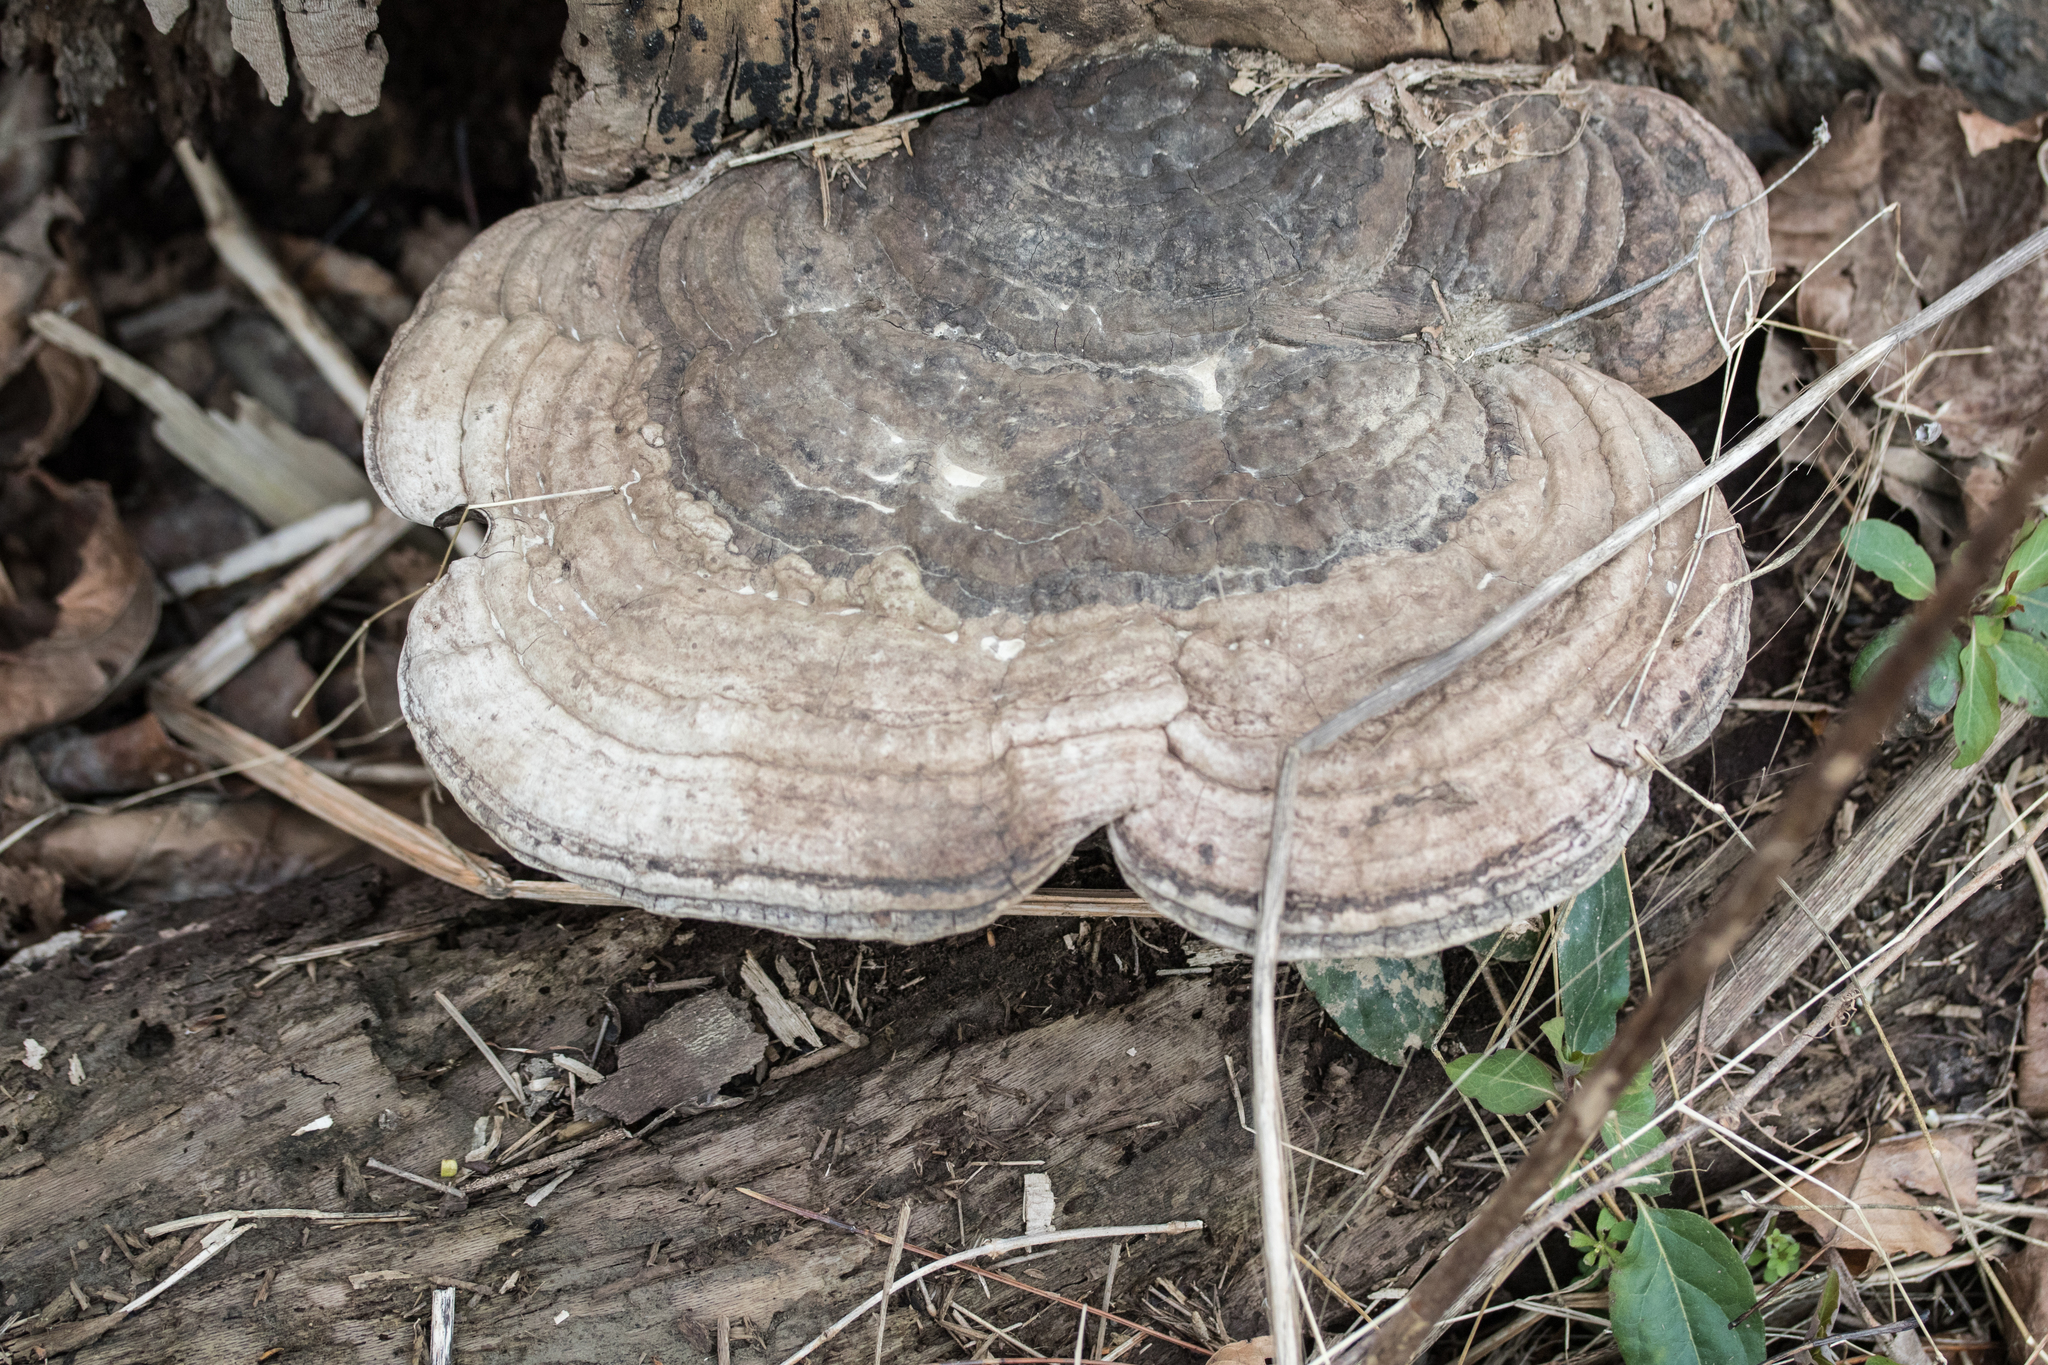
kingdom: Fungi
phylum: Basidiomycota
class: Agaricomycetes
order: Polyporales
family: Polyporaceae
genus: Ganoderma
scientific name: Ganoderma applanatum
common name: Artist's bracket
